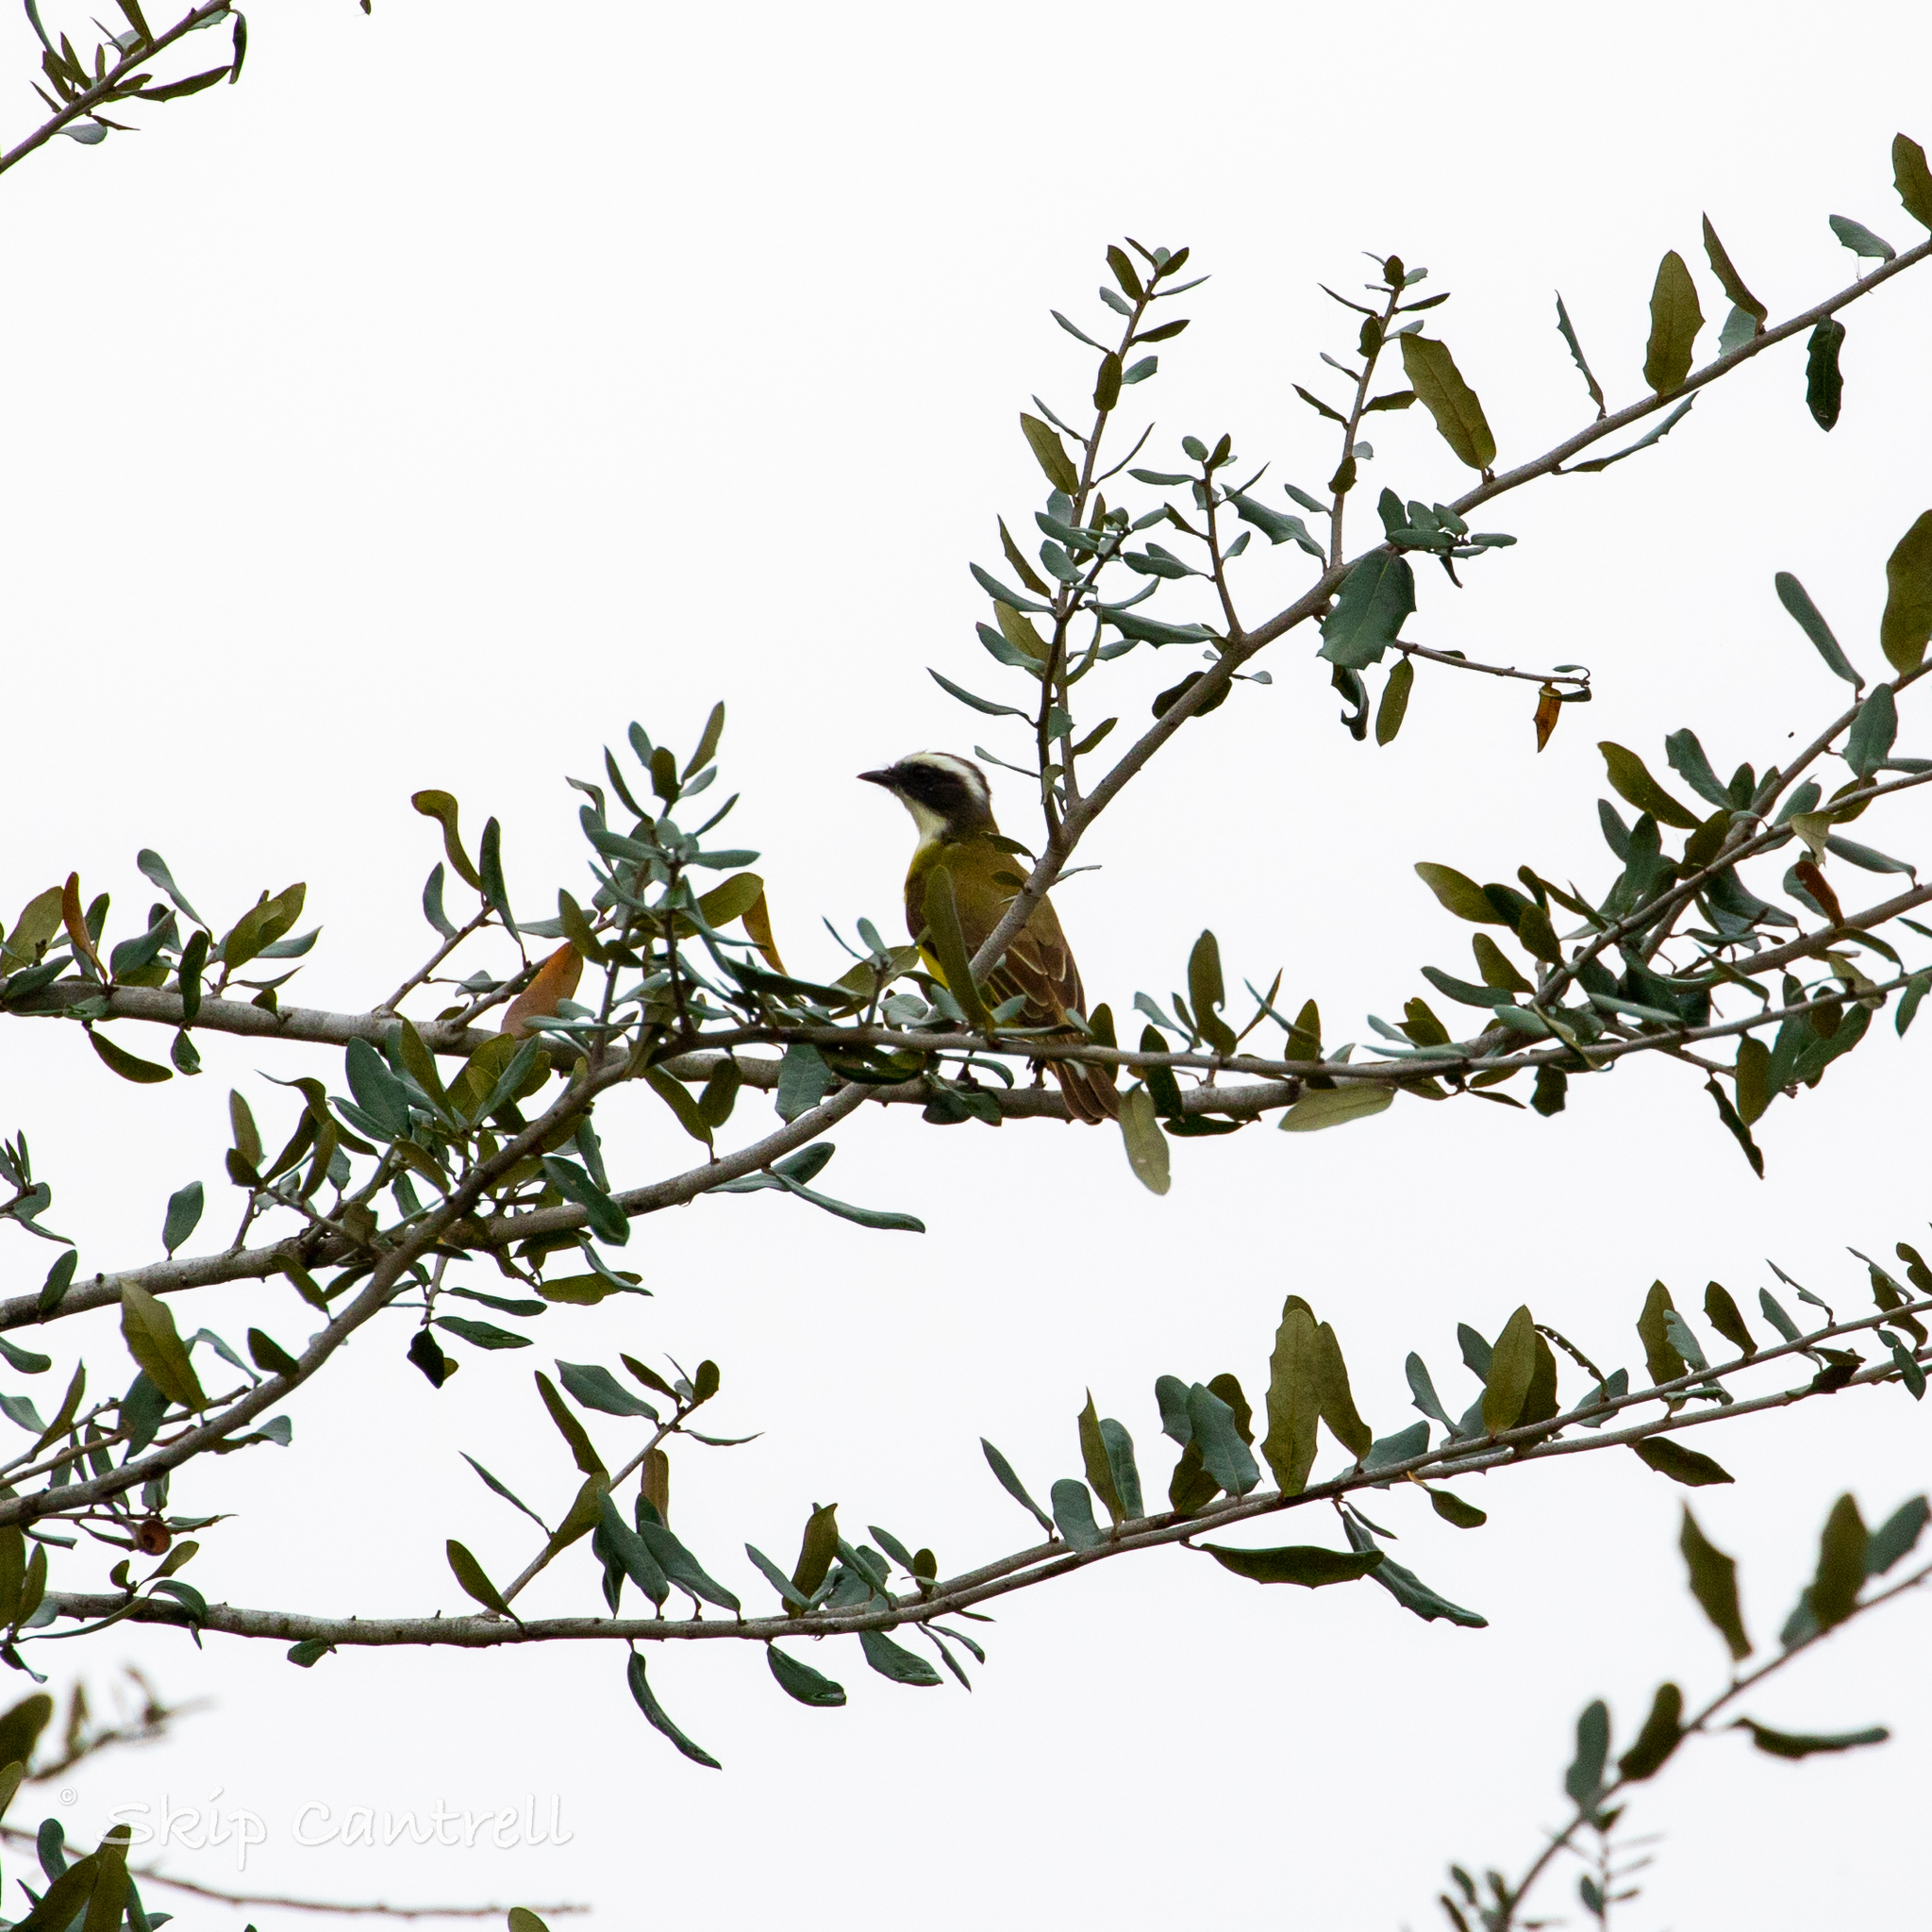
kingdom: Animalia
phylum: Chordata
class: Aves
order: Passeriformes
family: Tyrannidae
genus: Myiozetetes
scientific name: Myiozetetes similis
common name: Social flycatcher
